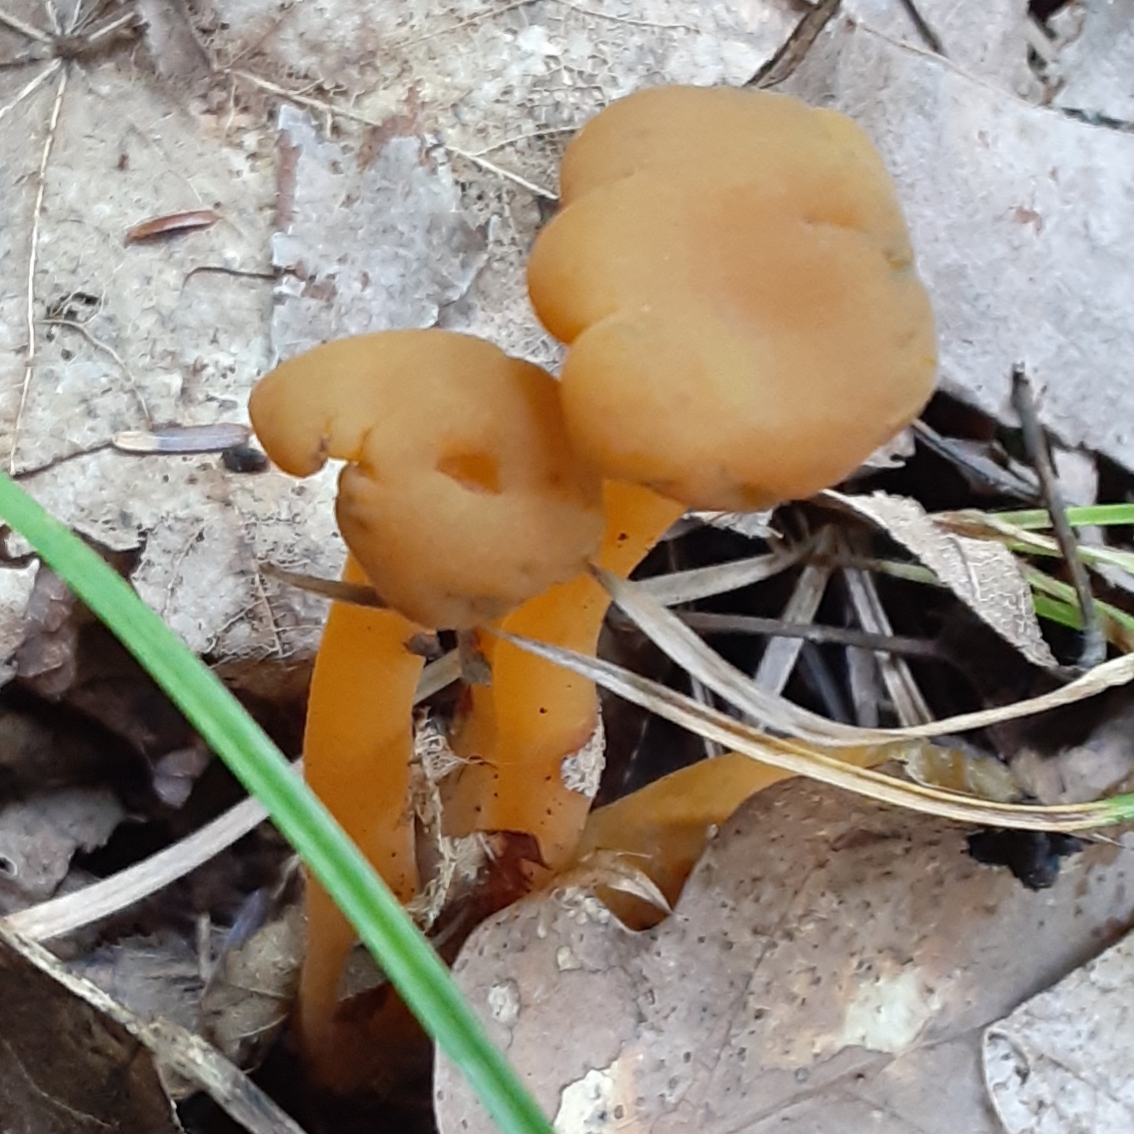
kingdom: Fungi
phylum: Ascomycota
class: Leotiomycetes
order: Leotiales
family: Leotiaceae
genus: Leotia
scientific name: Leotia lubrica
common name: Jellybaby
